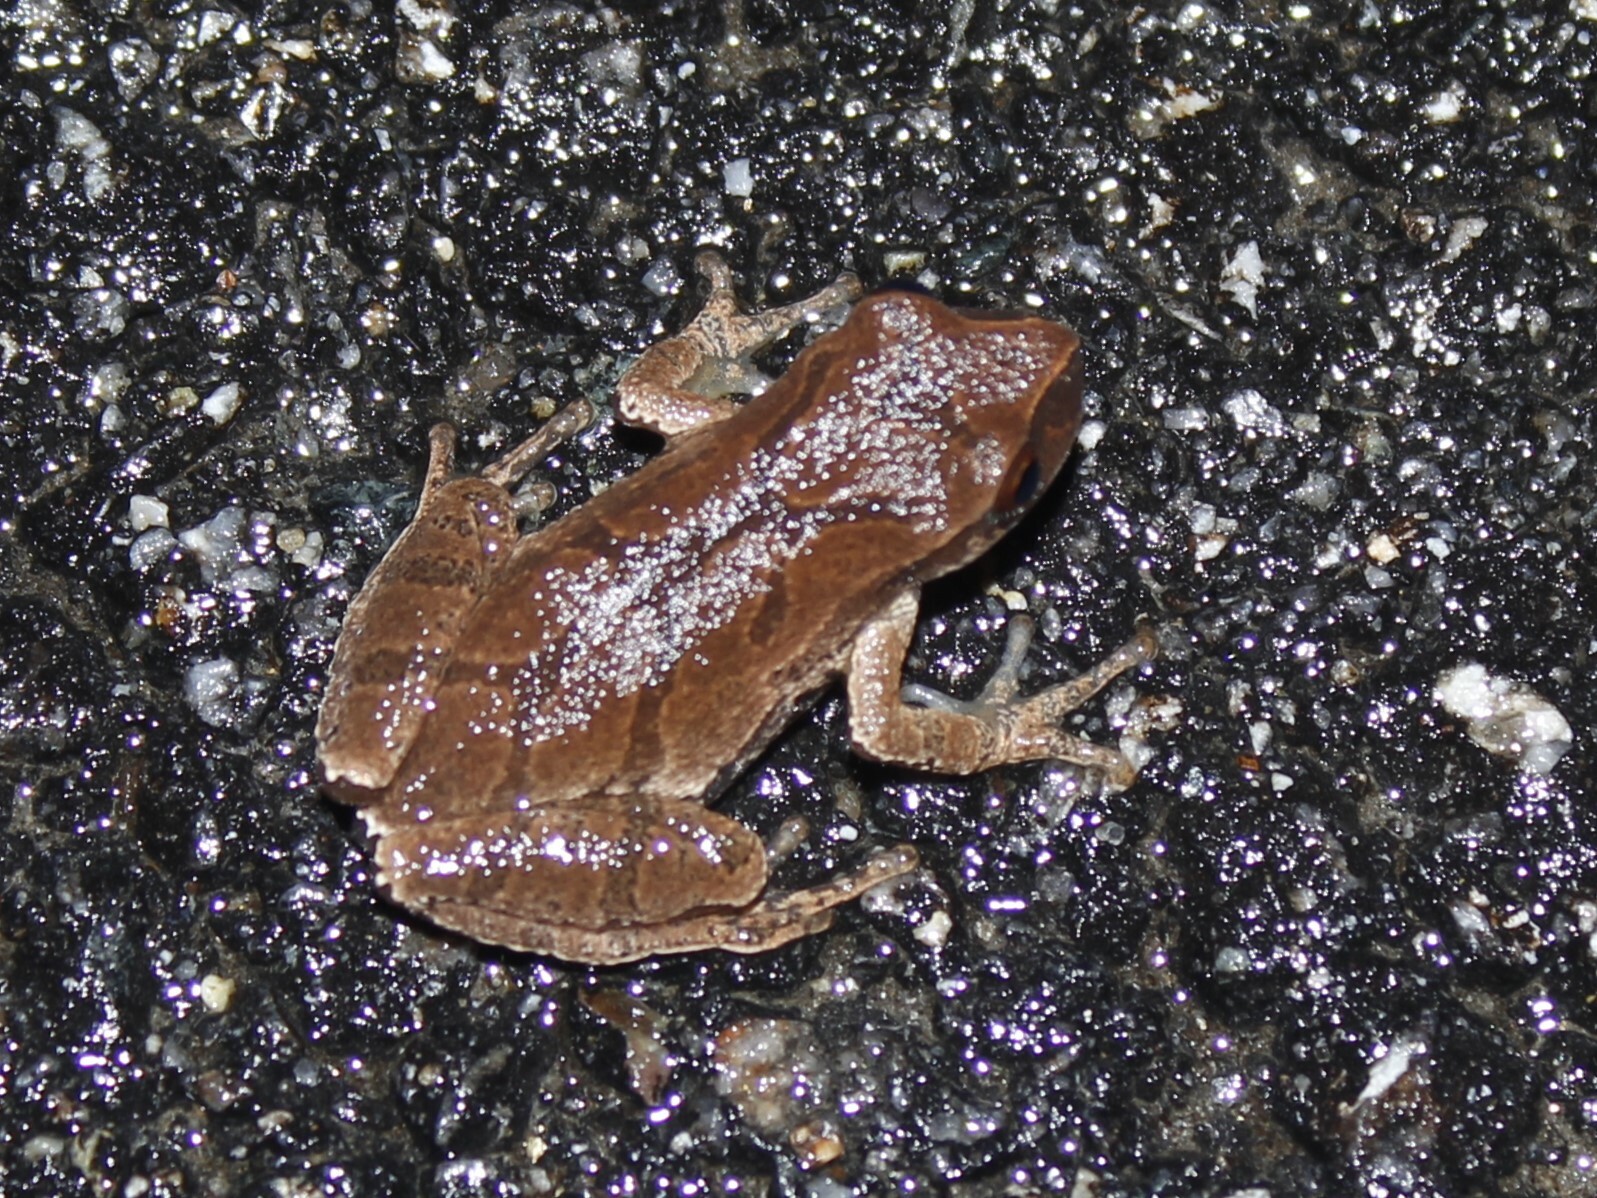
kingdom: Animalia
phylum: Chordata
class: Amphibia
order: Anura
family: Hylidae
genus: Pseudacris
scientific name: Pseudacris crucifer
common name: Spring peeper
